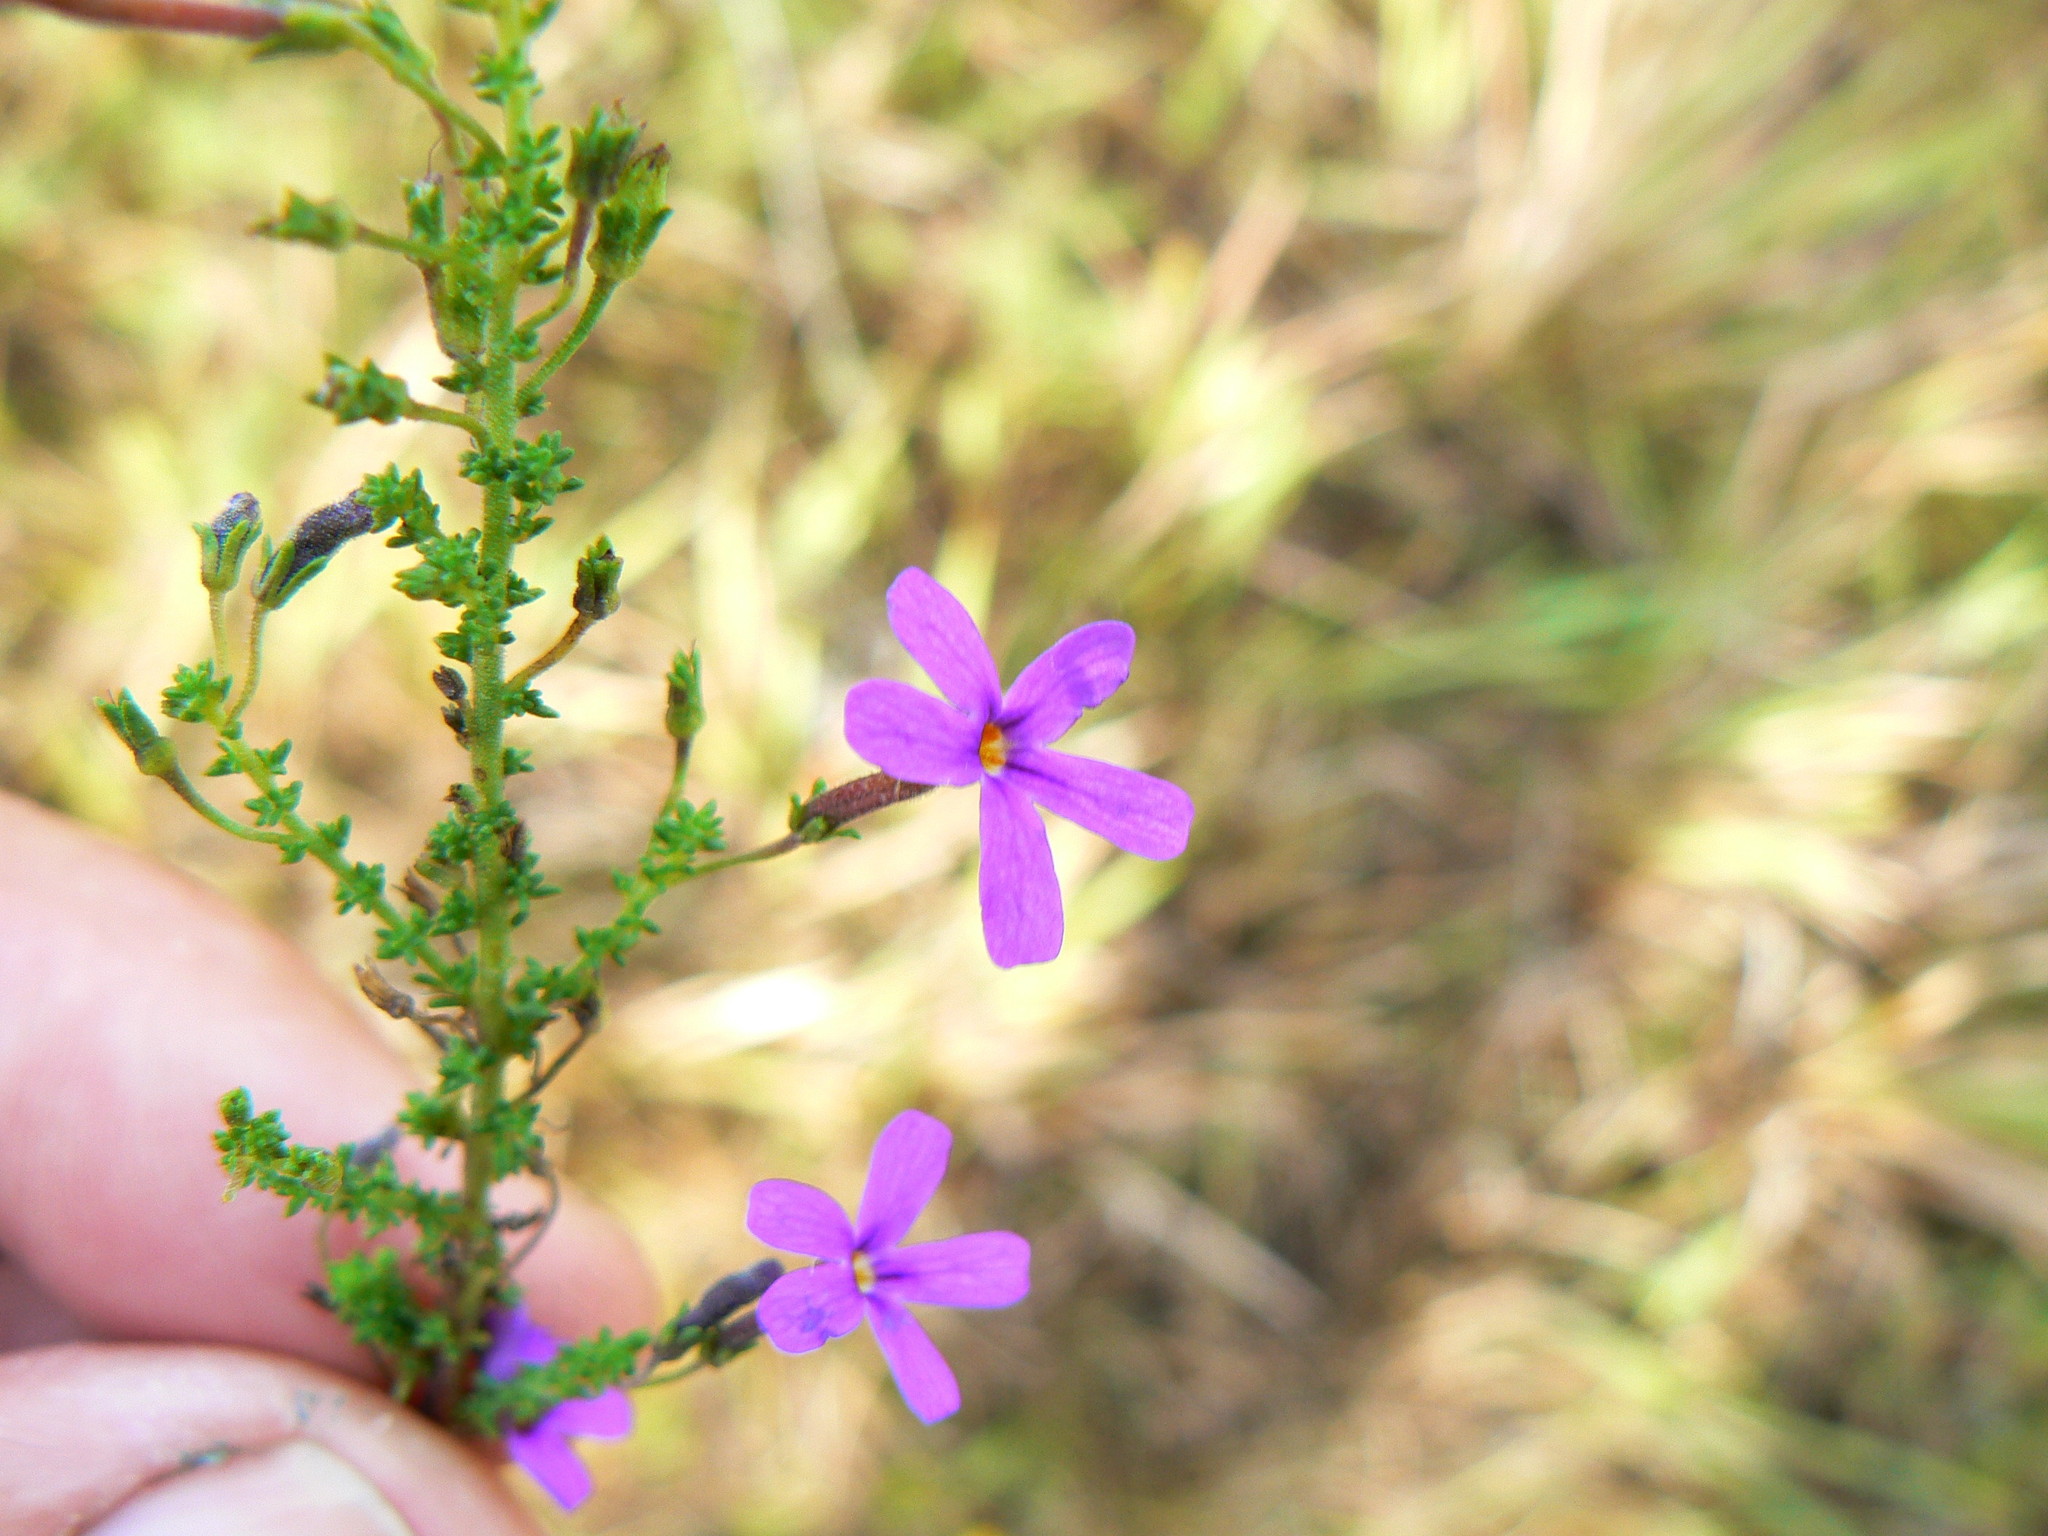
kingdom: Plantae
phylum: Tracheophyta
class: Magnoliopsida
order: Lamiales
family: Scrophulariaceae
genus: Jamesbrittenia
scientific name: Jamesbrittenia microphylla
